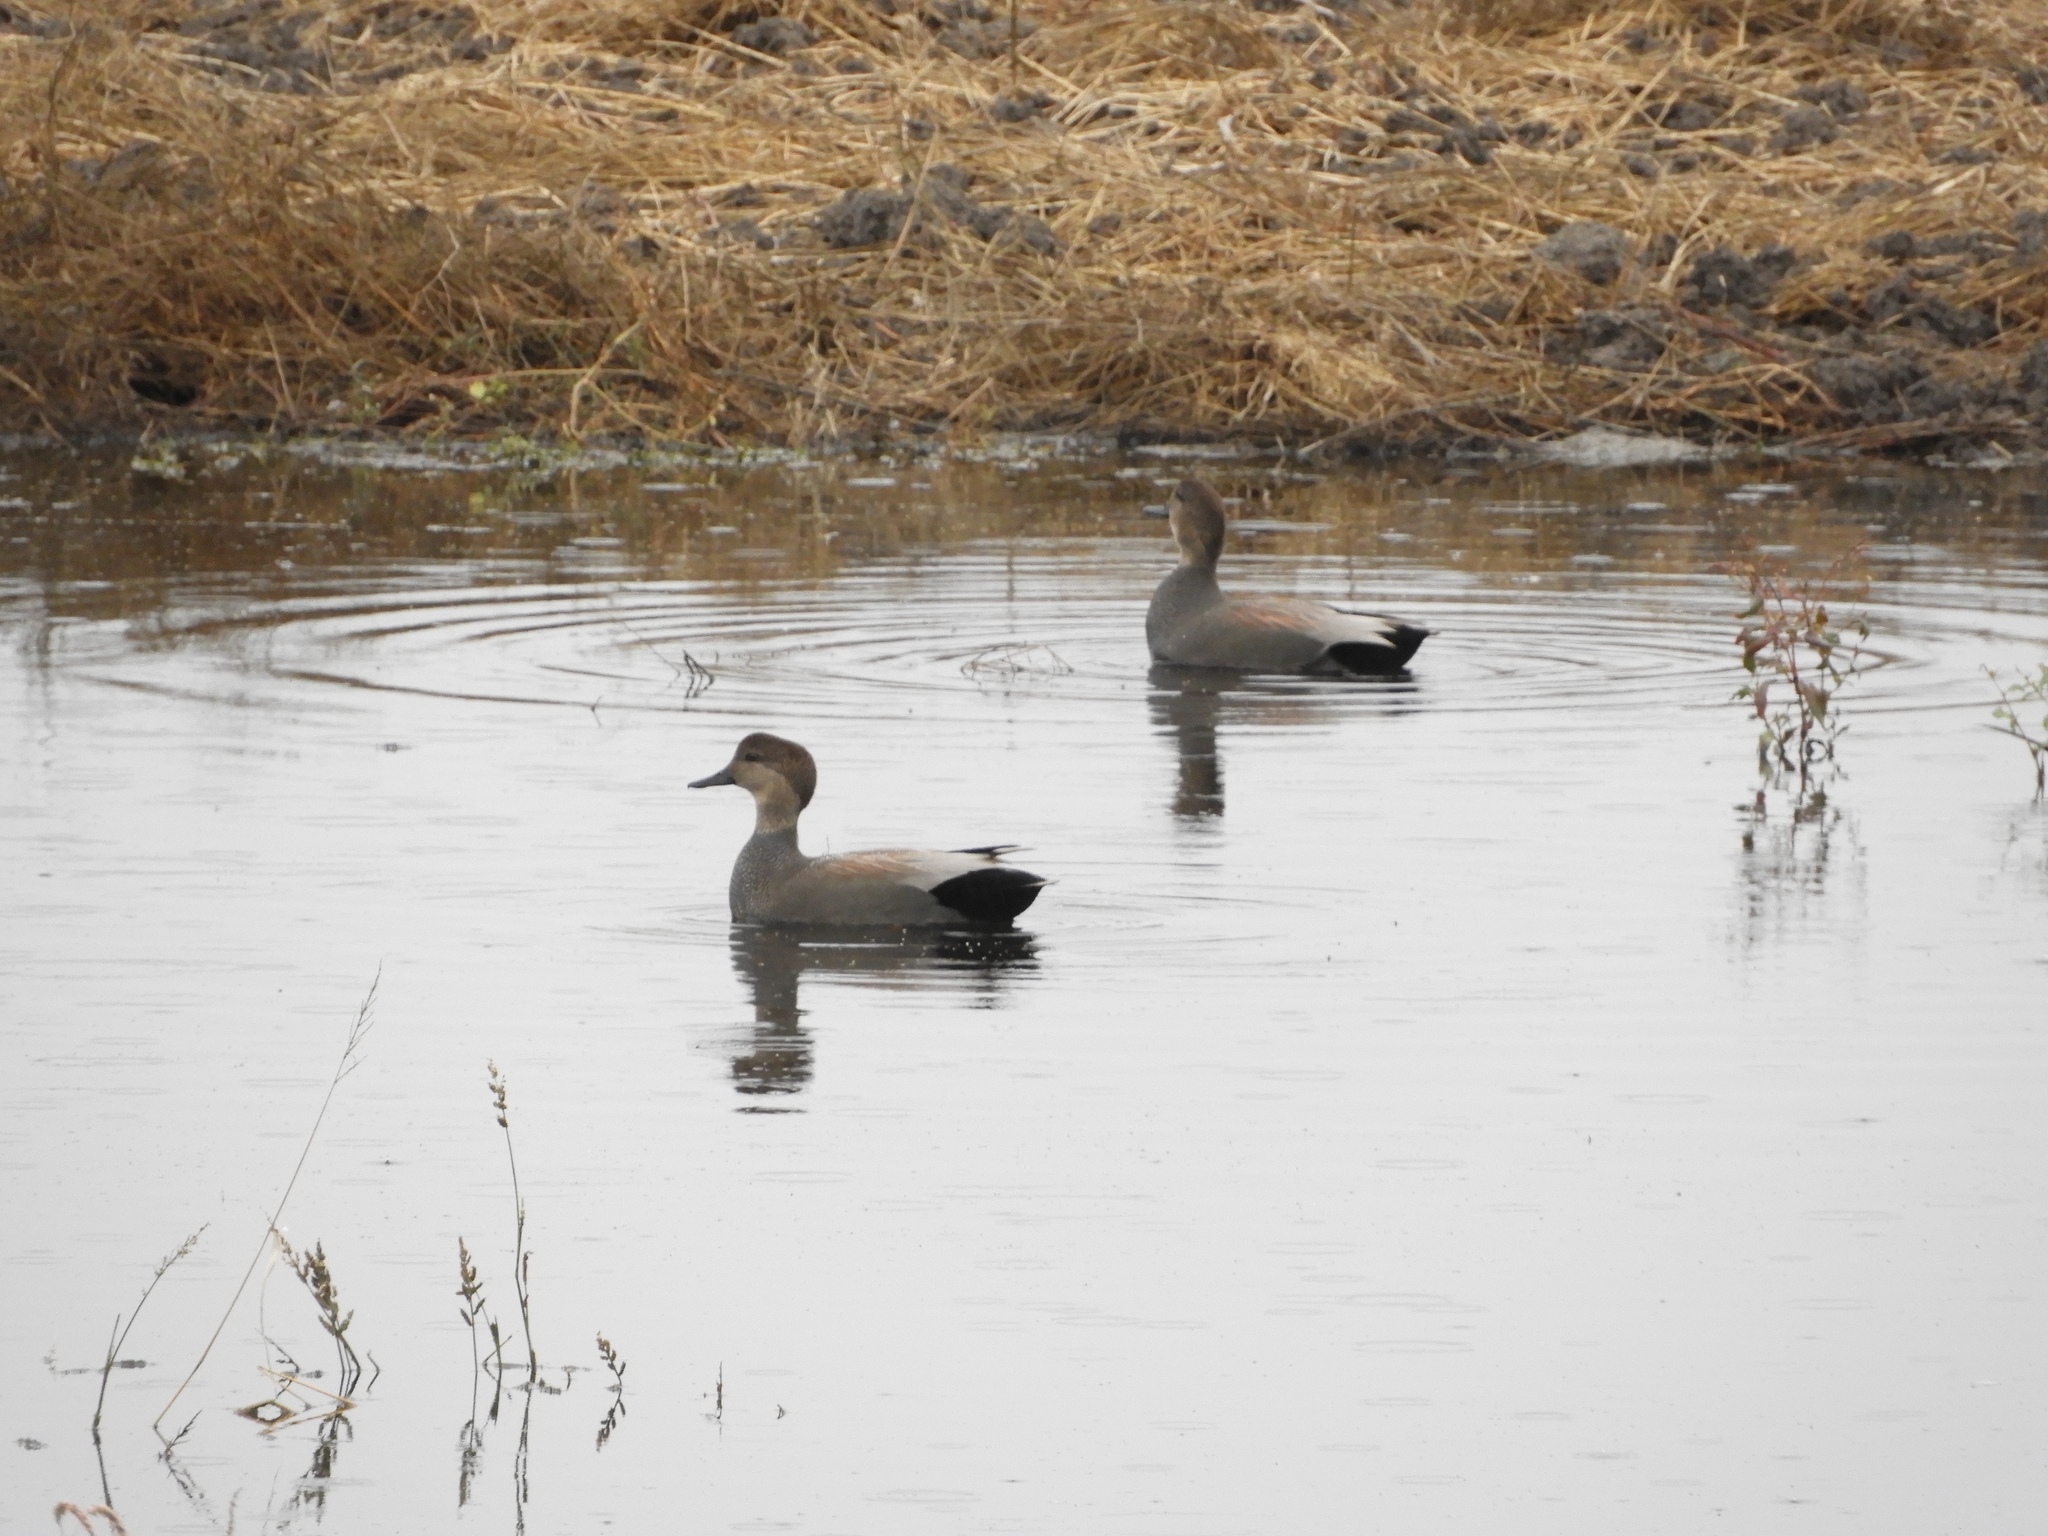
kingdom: Animalia
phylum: Chordata
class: Aves
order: Anseriformes
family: Anatidae
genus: Mareca
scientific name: Mareca strepera
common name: Gadwall
